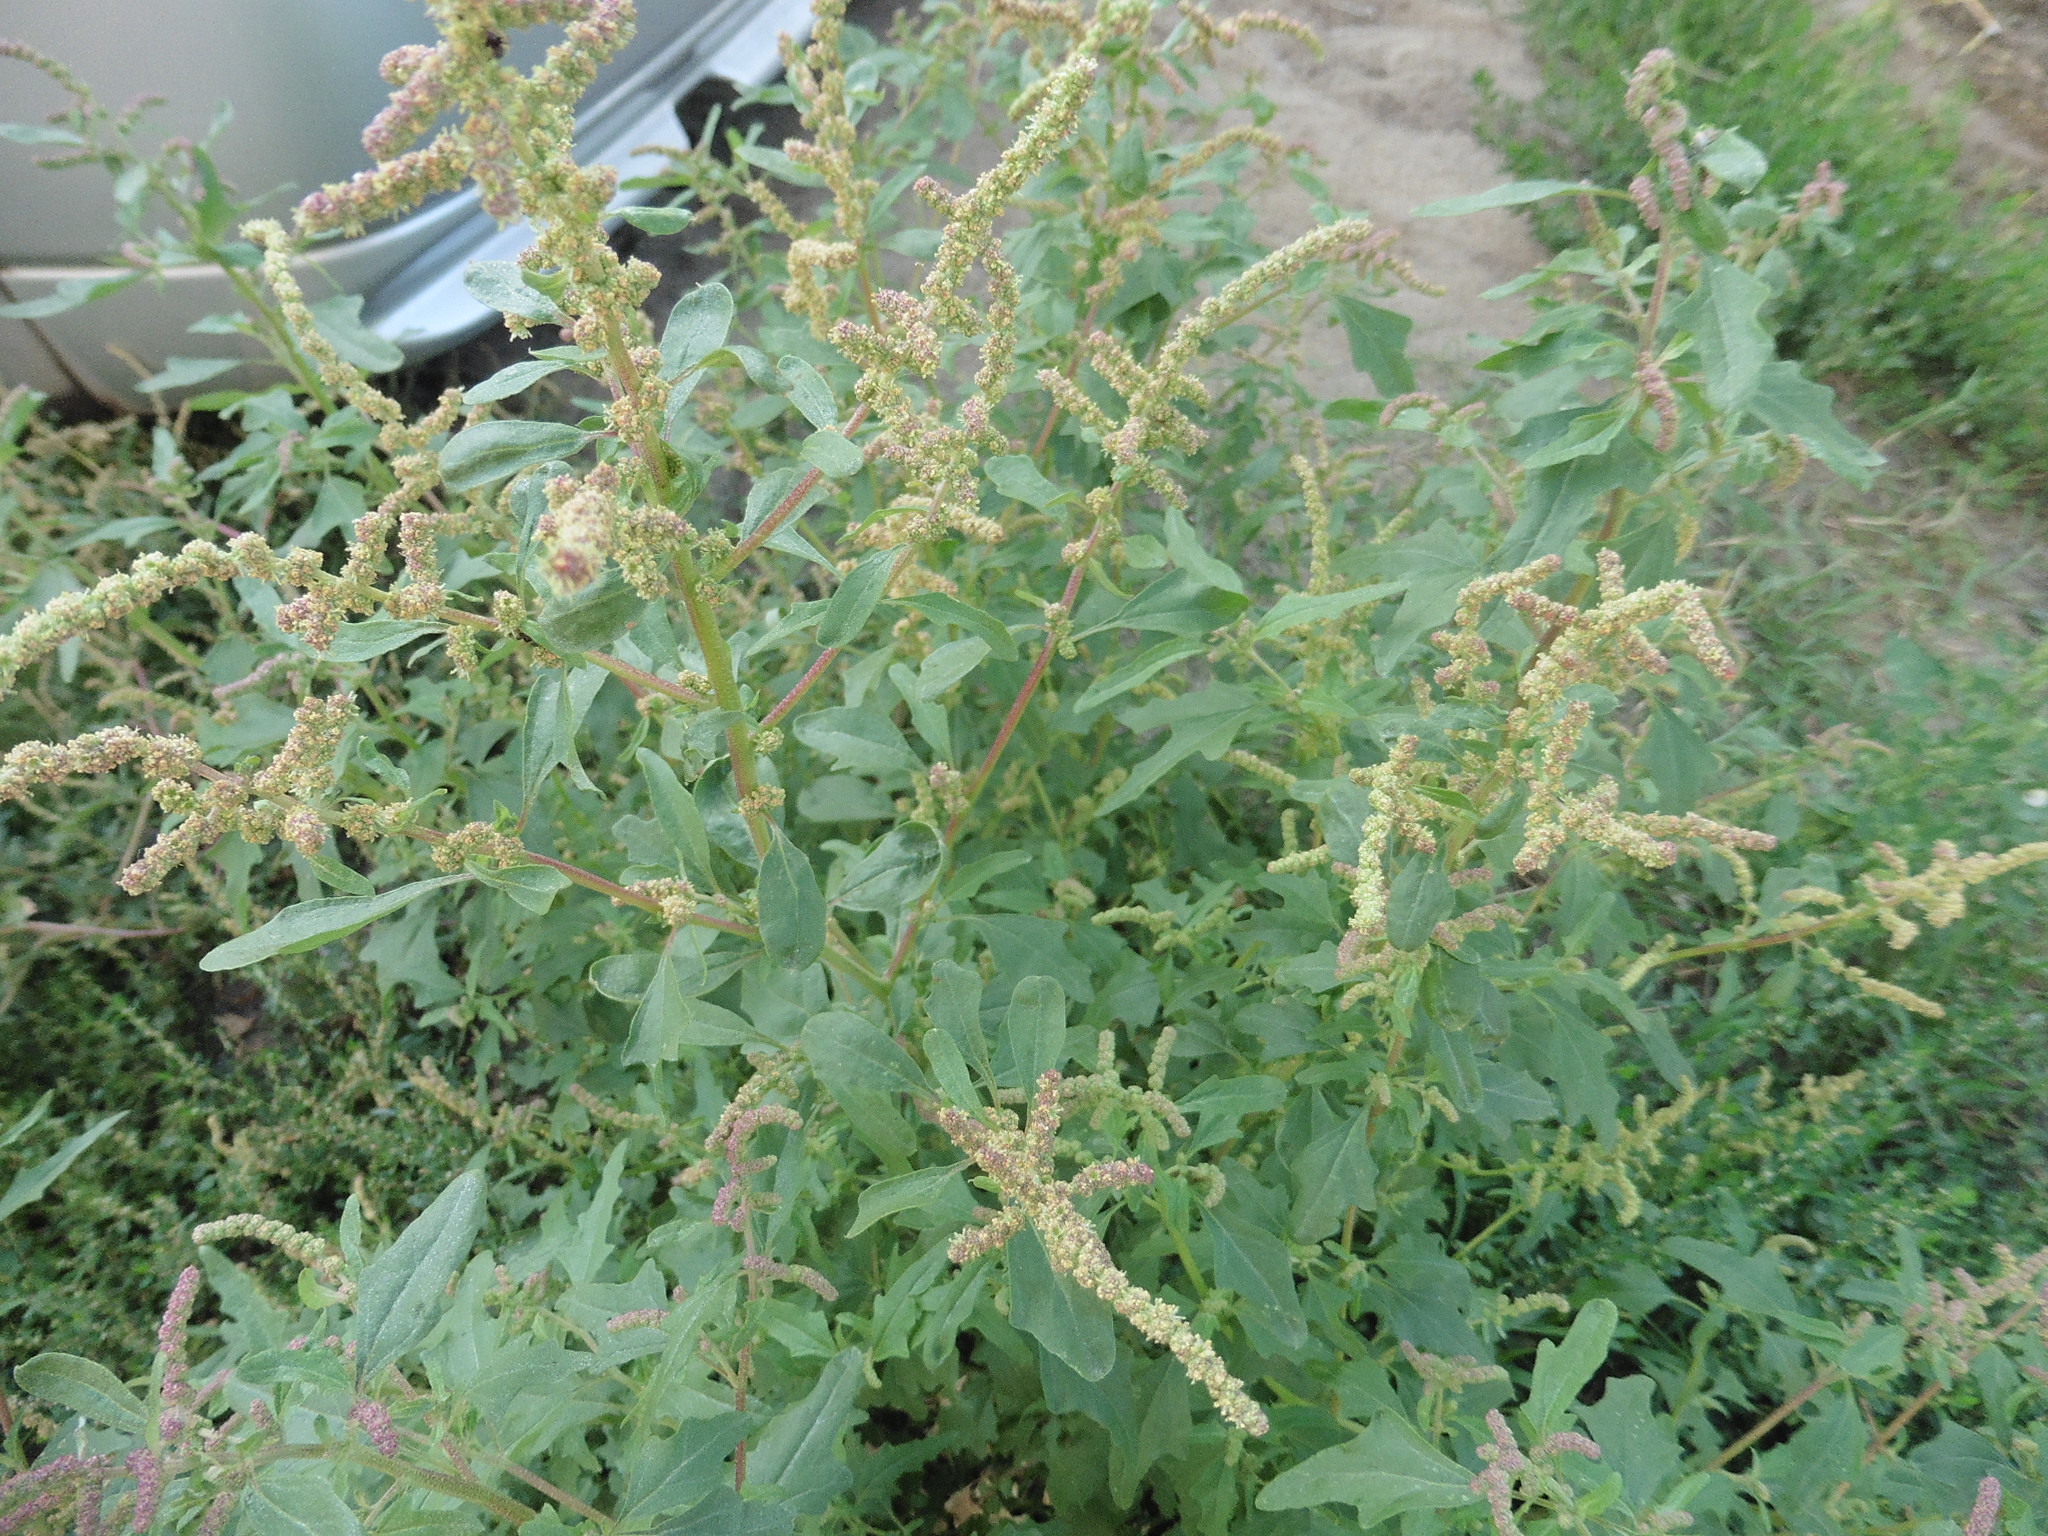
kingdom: Plantae
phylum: Tracheophyta
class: Magnoliopsida
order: Caryophyllales
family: Amaranthaceae
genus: Atriplex
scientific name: Atriplex tatarica
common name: Tatarian orache
